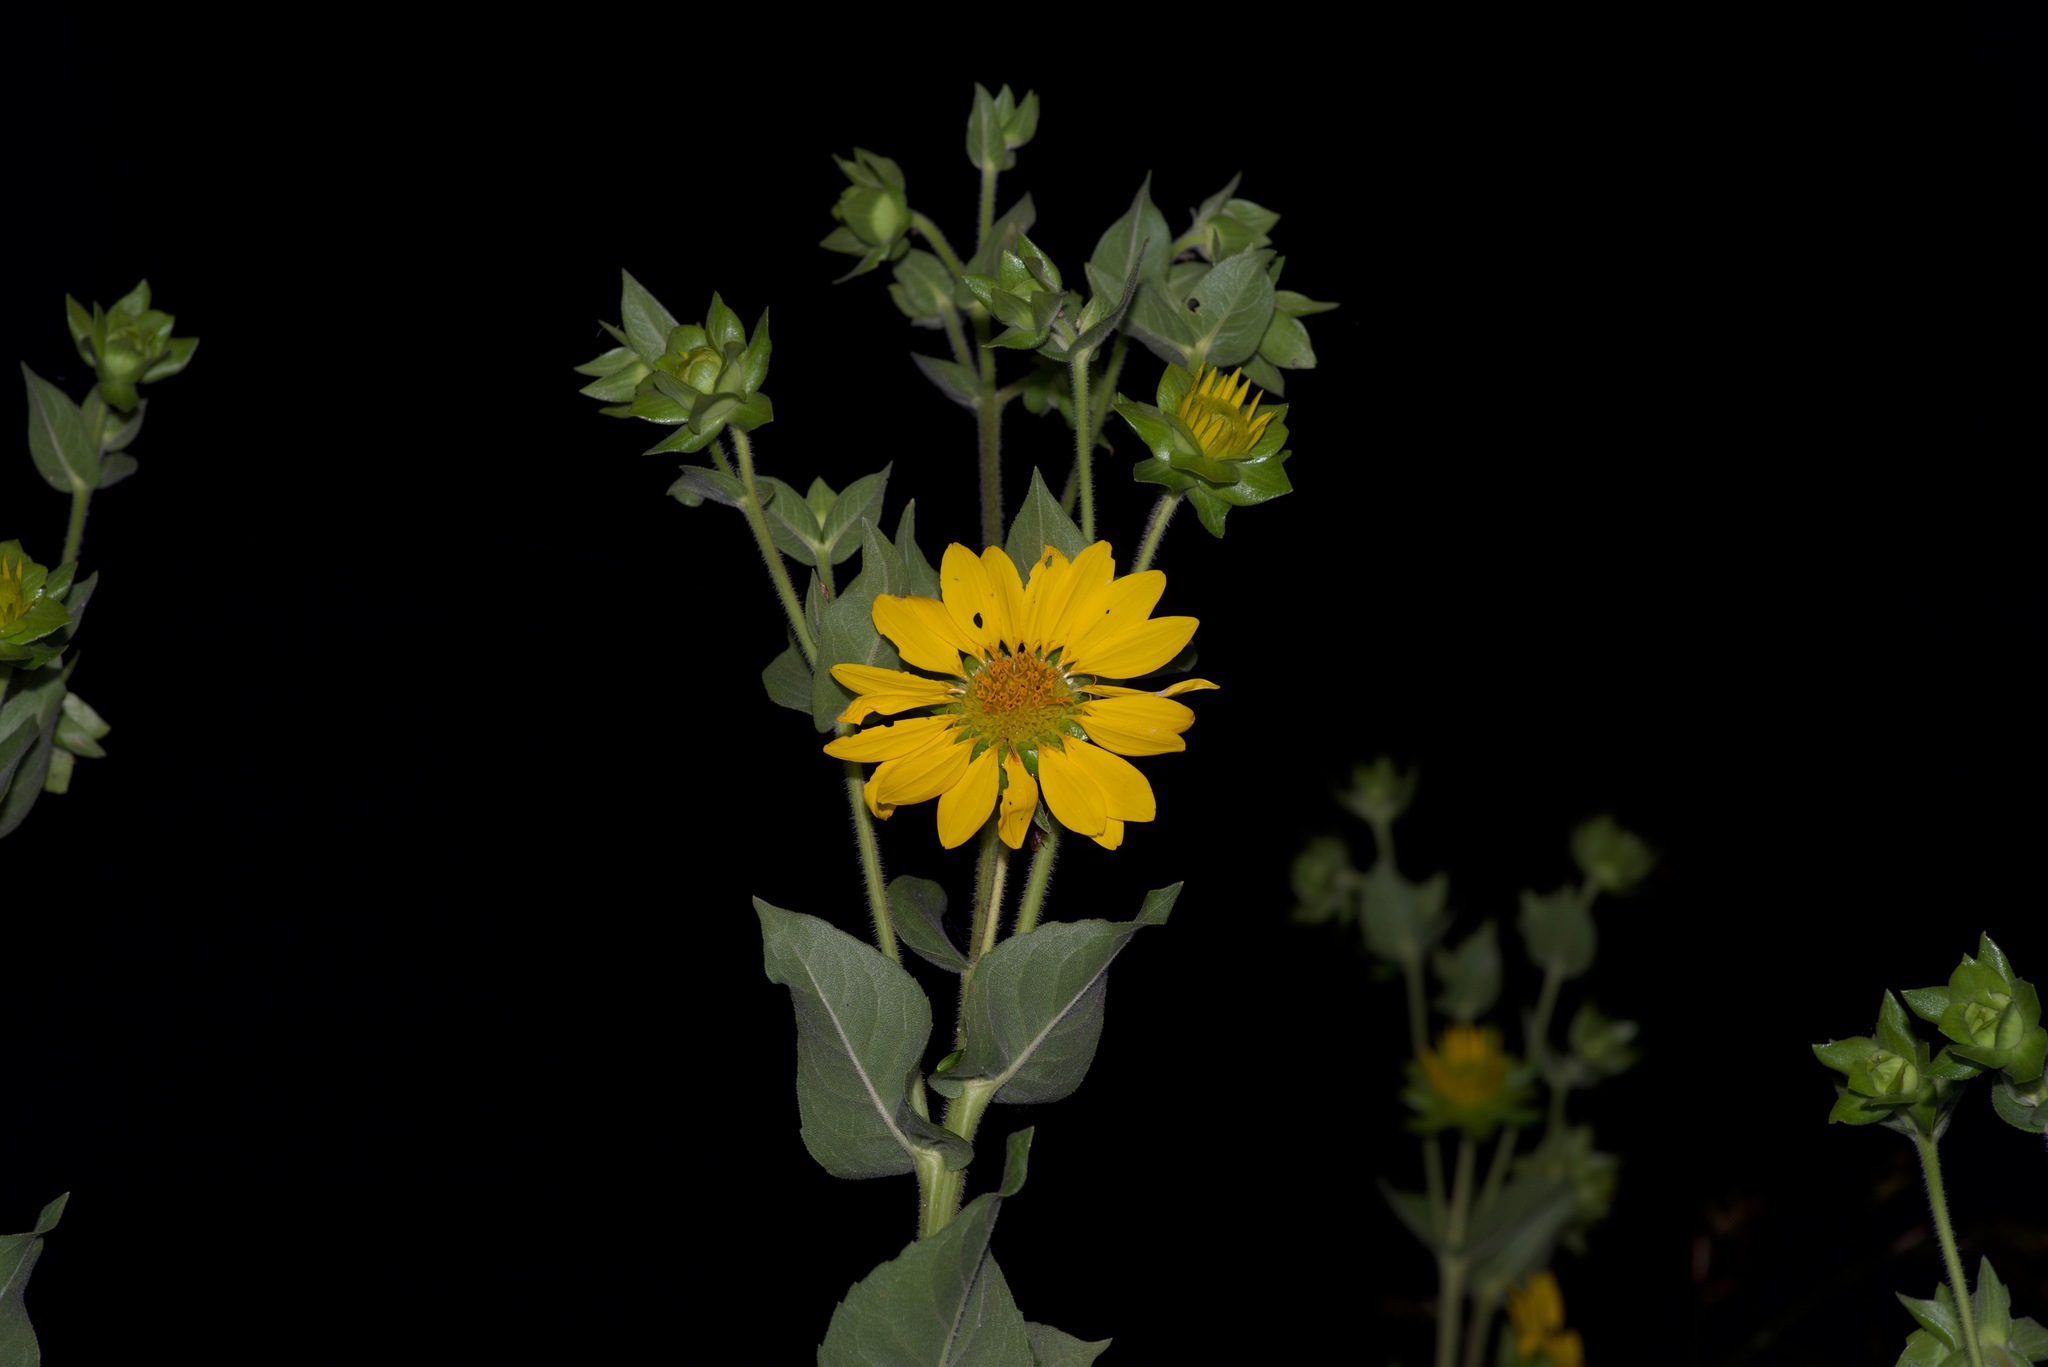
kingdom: Plantae
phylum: Tracheophyta
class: Magnoliopsida
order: Asterales
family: Asteraceae
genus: Silphium
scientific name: Silphium radula
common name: Roughleaf rosinweed
